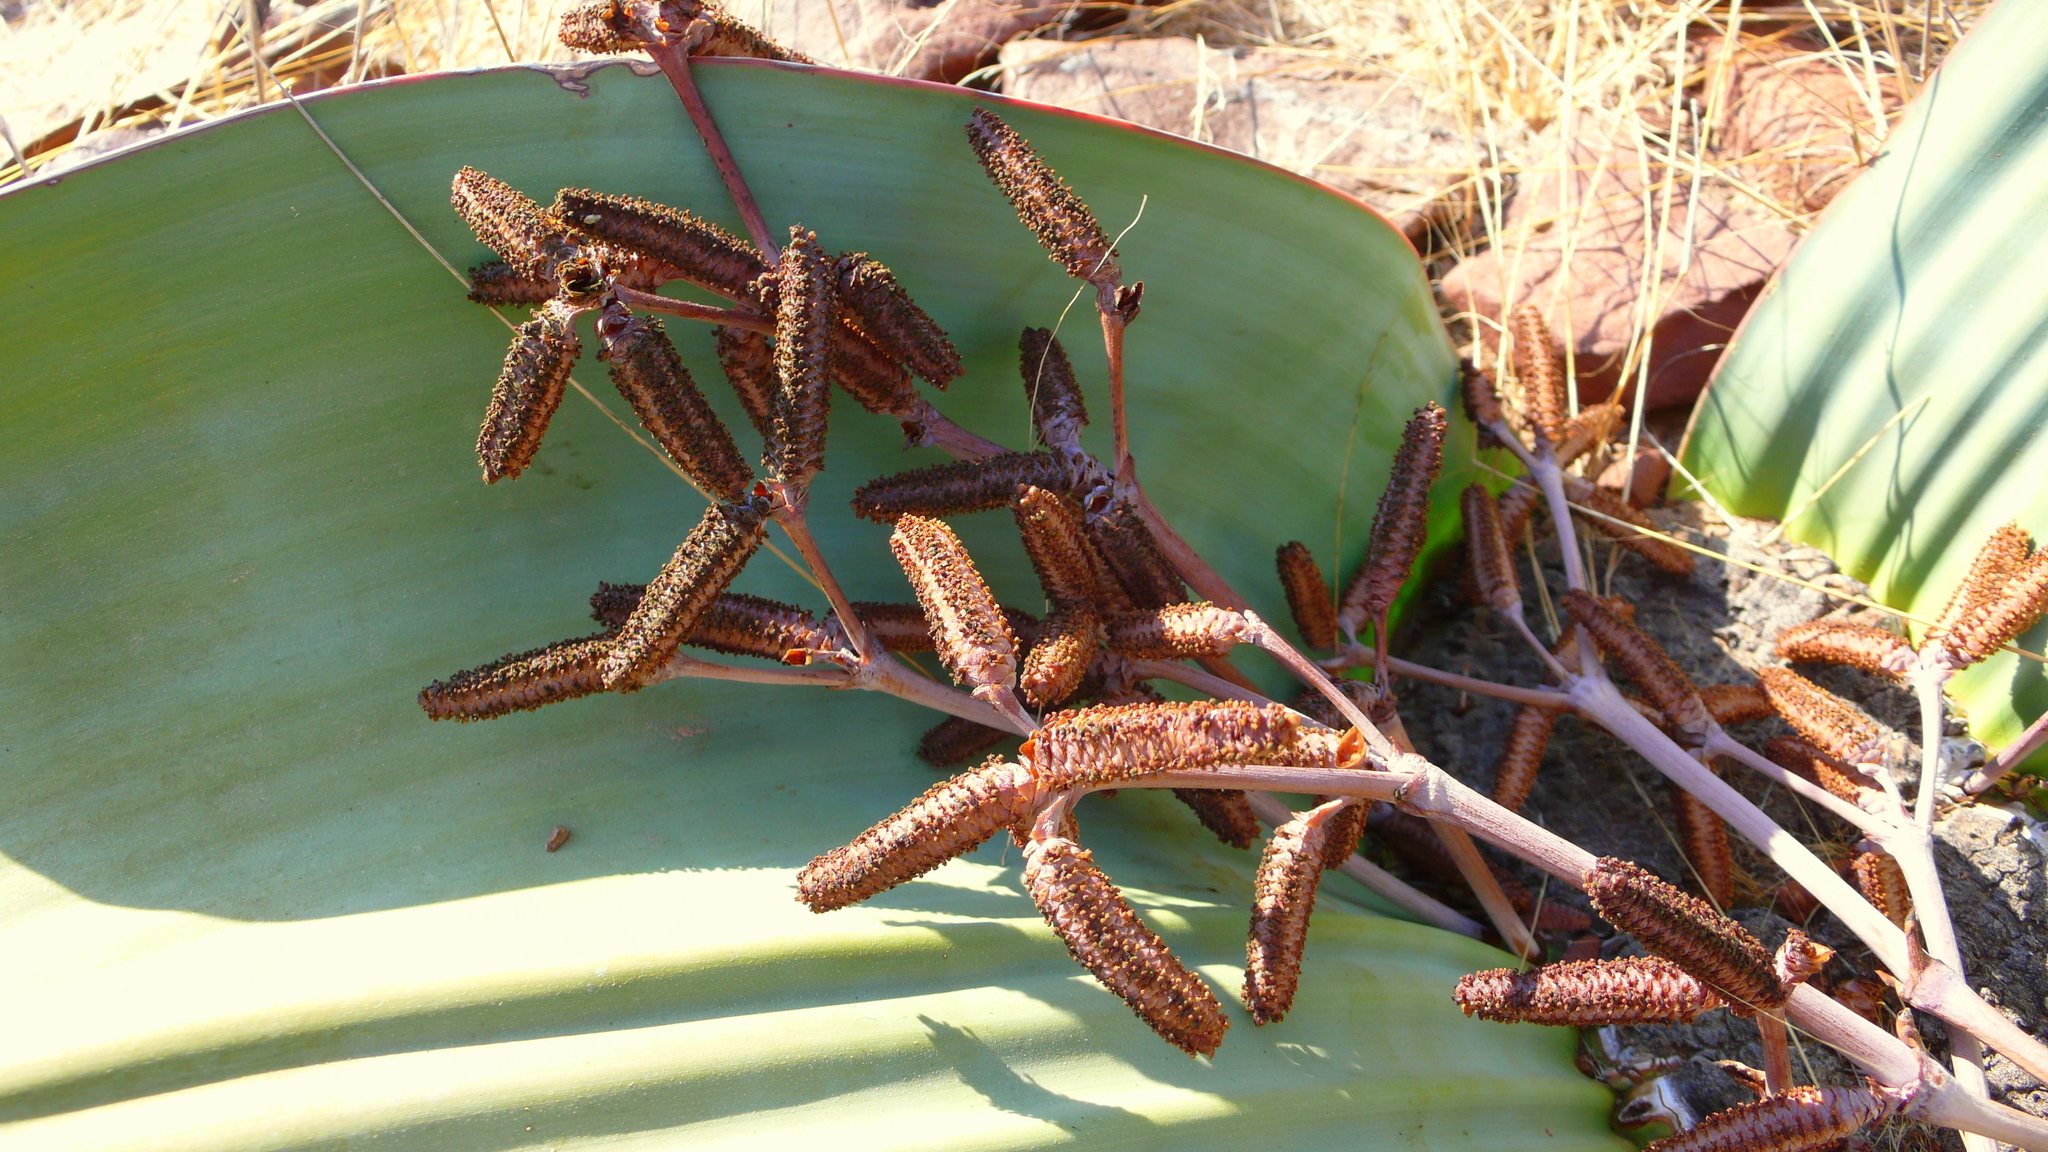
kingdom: Plantae
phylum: Tracheophyta
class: Gnetopsida
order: Welwitschiales
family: Welwitschiaceae
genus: Welwitschia
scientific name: Welwitschia mirabilis
